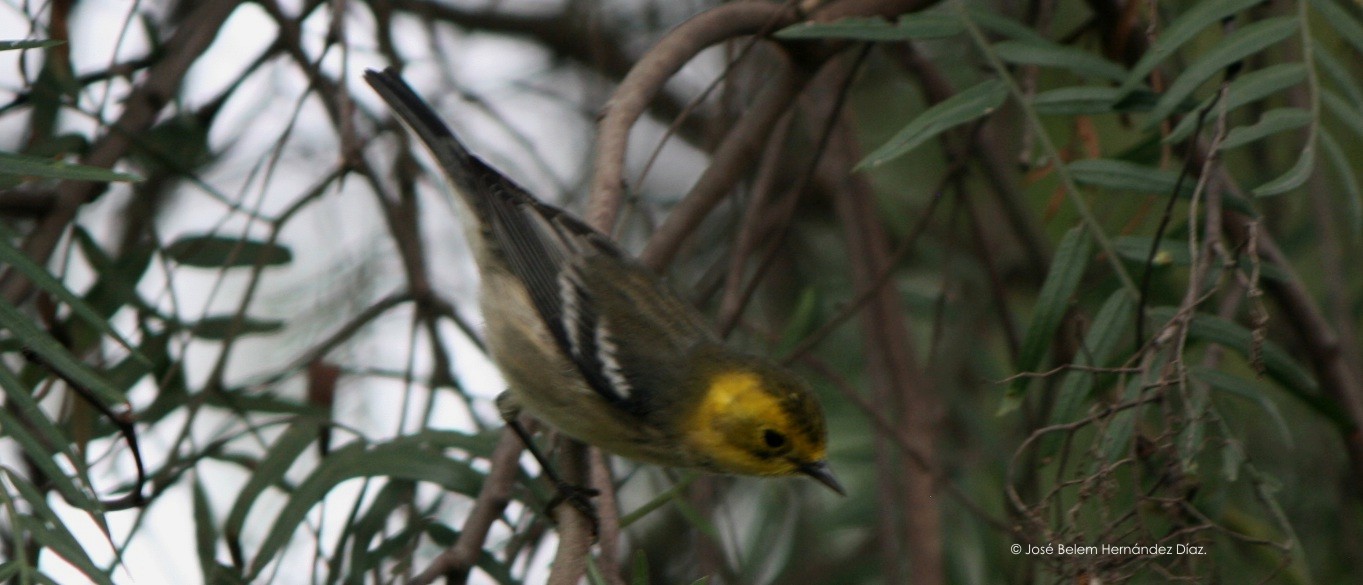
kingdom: Animalia
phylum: Chordata
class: Aves
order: Passeriformes
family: Parulidae
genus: Setophaga
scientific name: Setophaga occidentalis
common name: Hermit warbler
